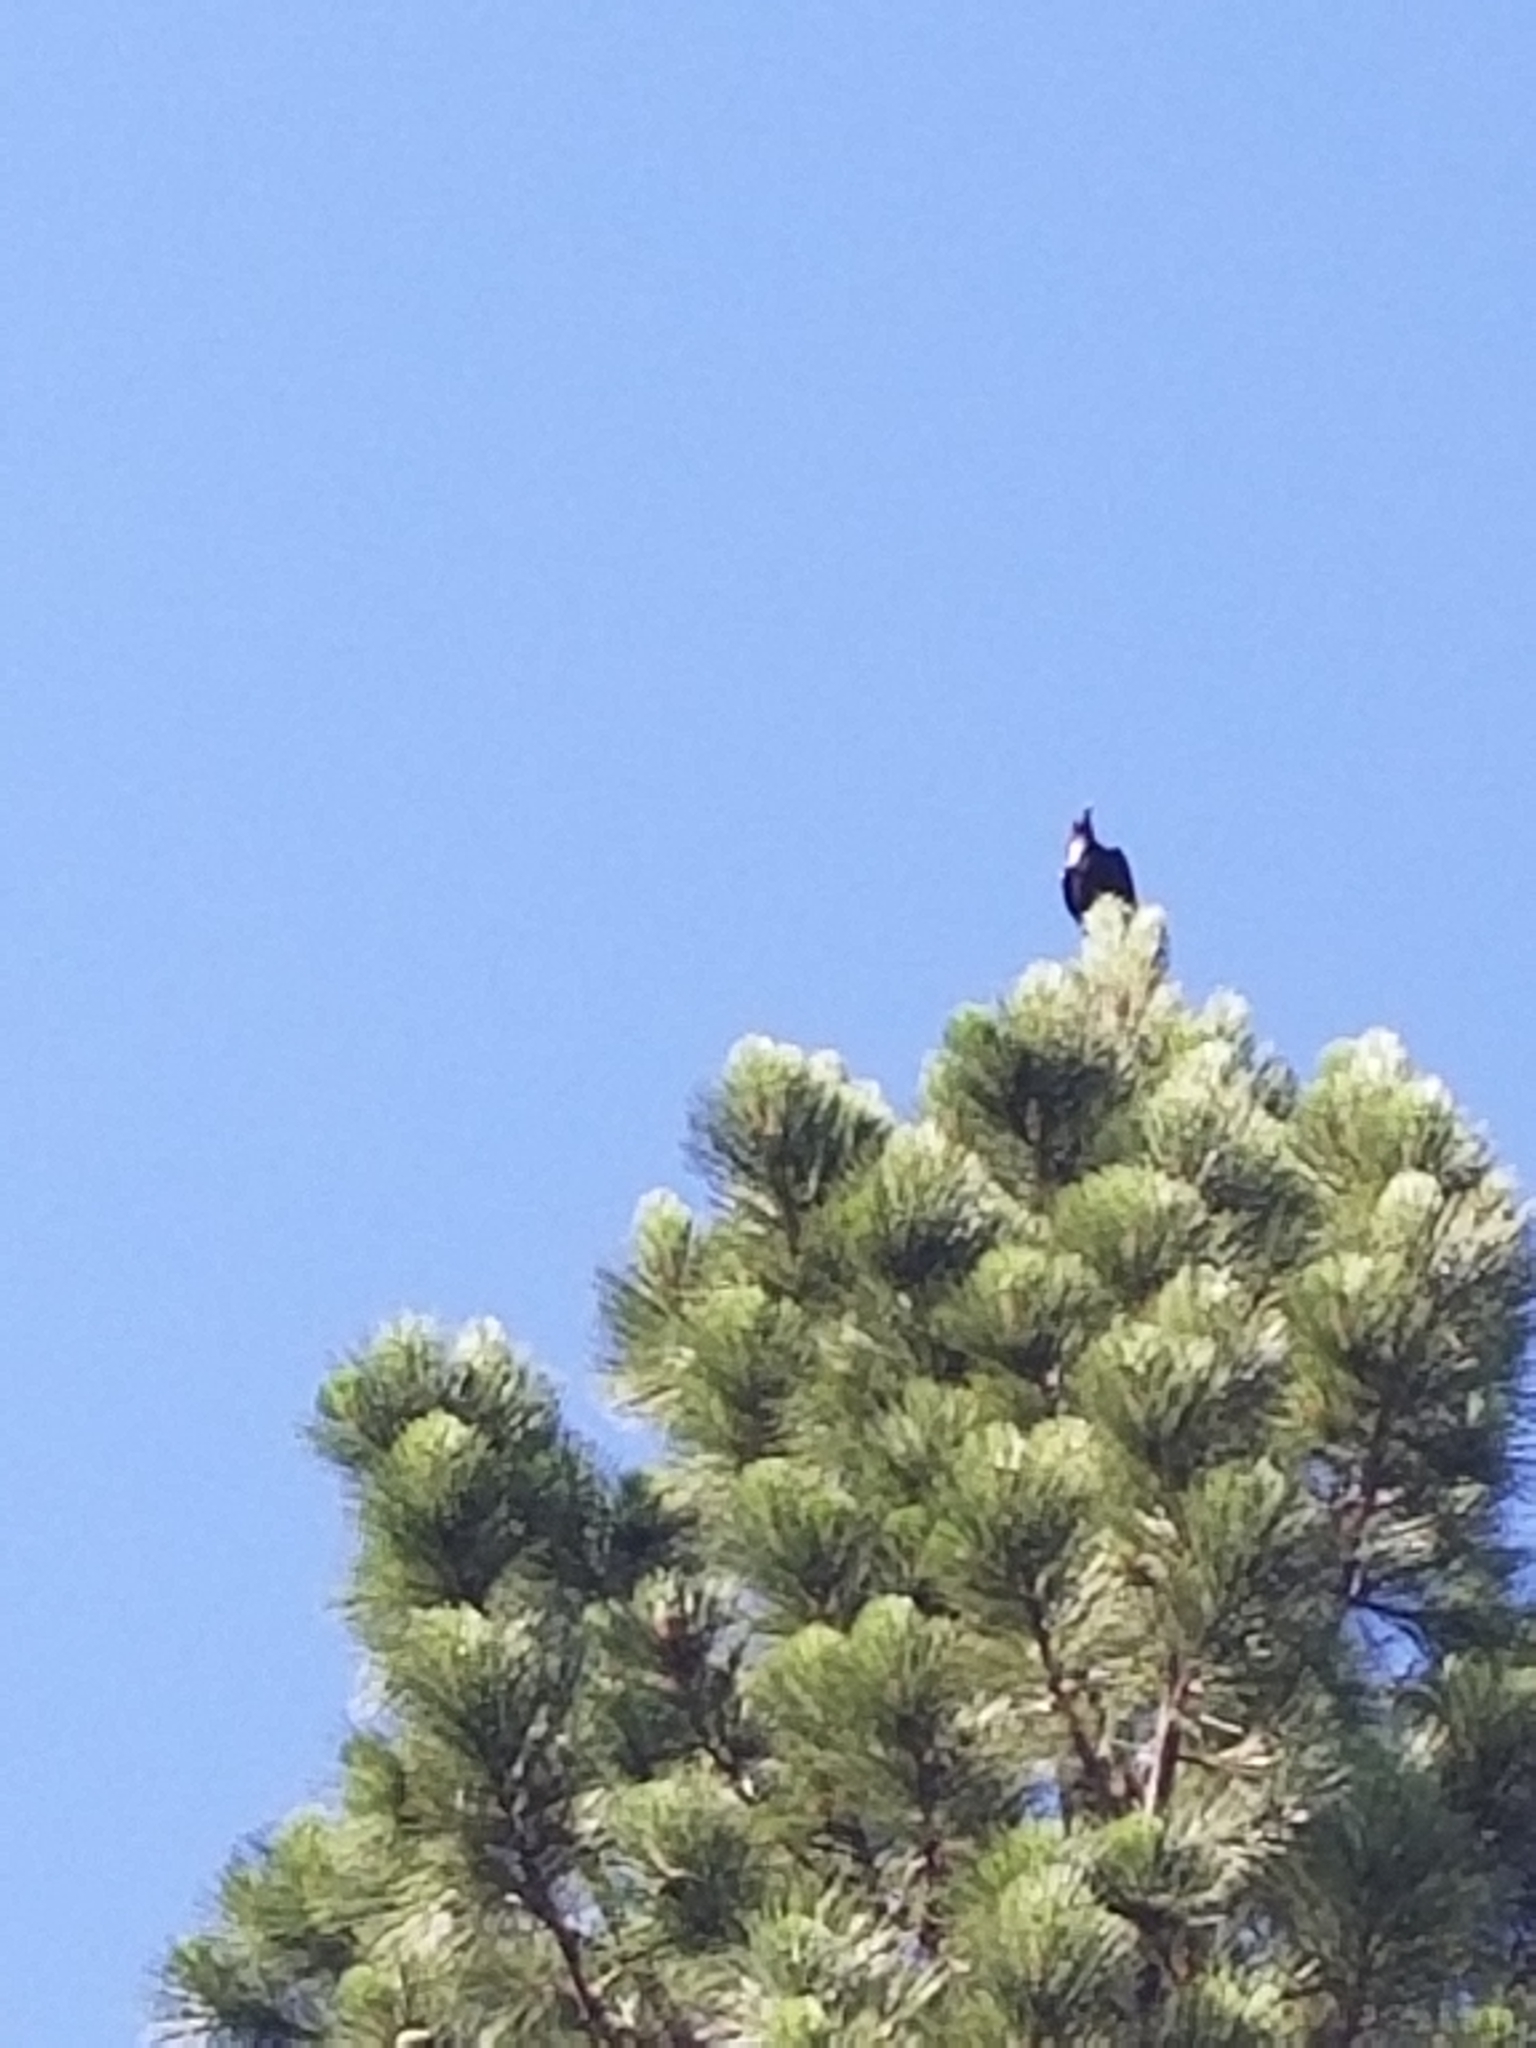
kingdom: Animalia
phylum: Chordata
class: Aves
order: Passeriformes
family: Corvidae
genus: Corvus
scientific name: Corvus corax
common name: Common raven
